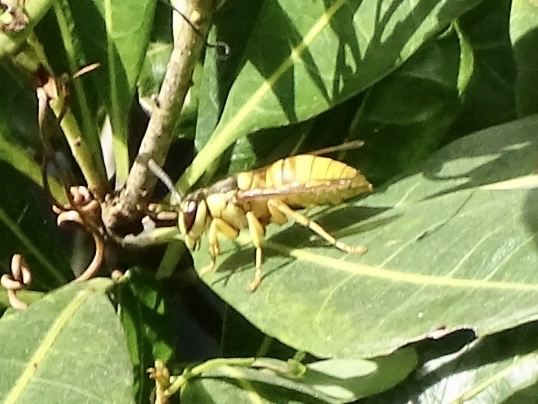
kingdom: Animalia
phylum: Arthropoda
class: Insecta
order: Hymenoptera
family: Vespidae
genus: Vespa
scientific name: Vespa bicolor
